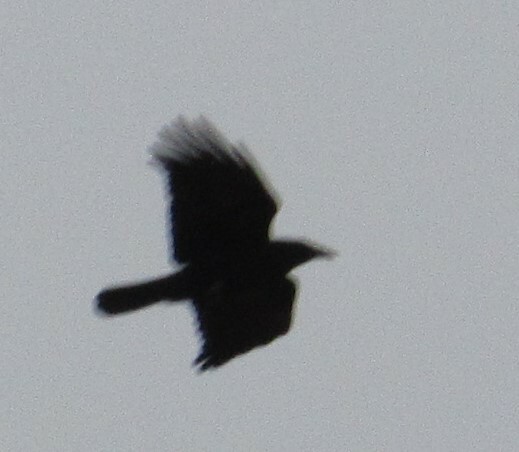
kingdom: Animalia
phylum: Chordata
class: Aves
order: Passeriformes
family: Corvidae
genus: Corvus
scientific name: Corvus brachyrhynchos
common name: American crow
